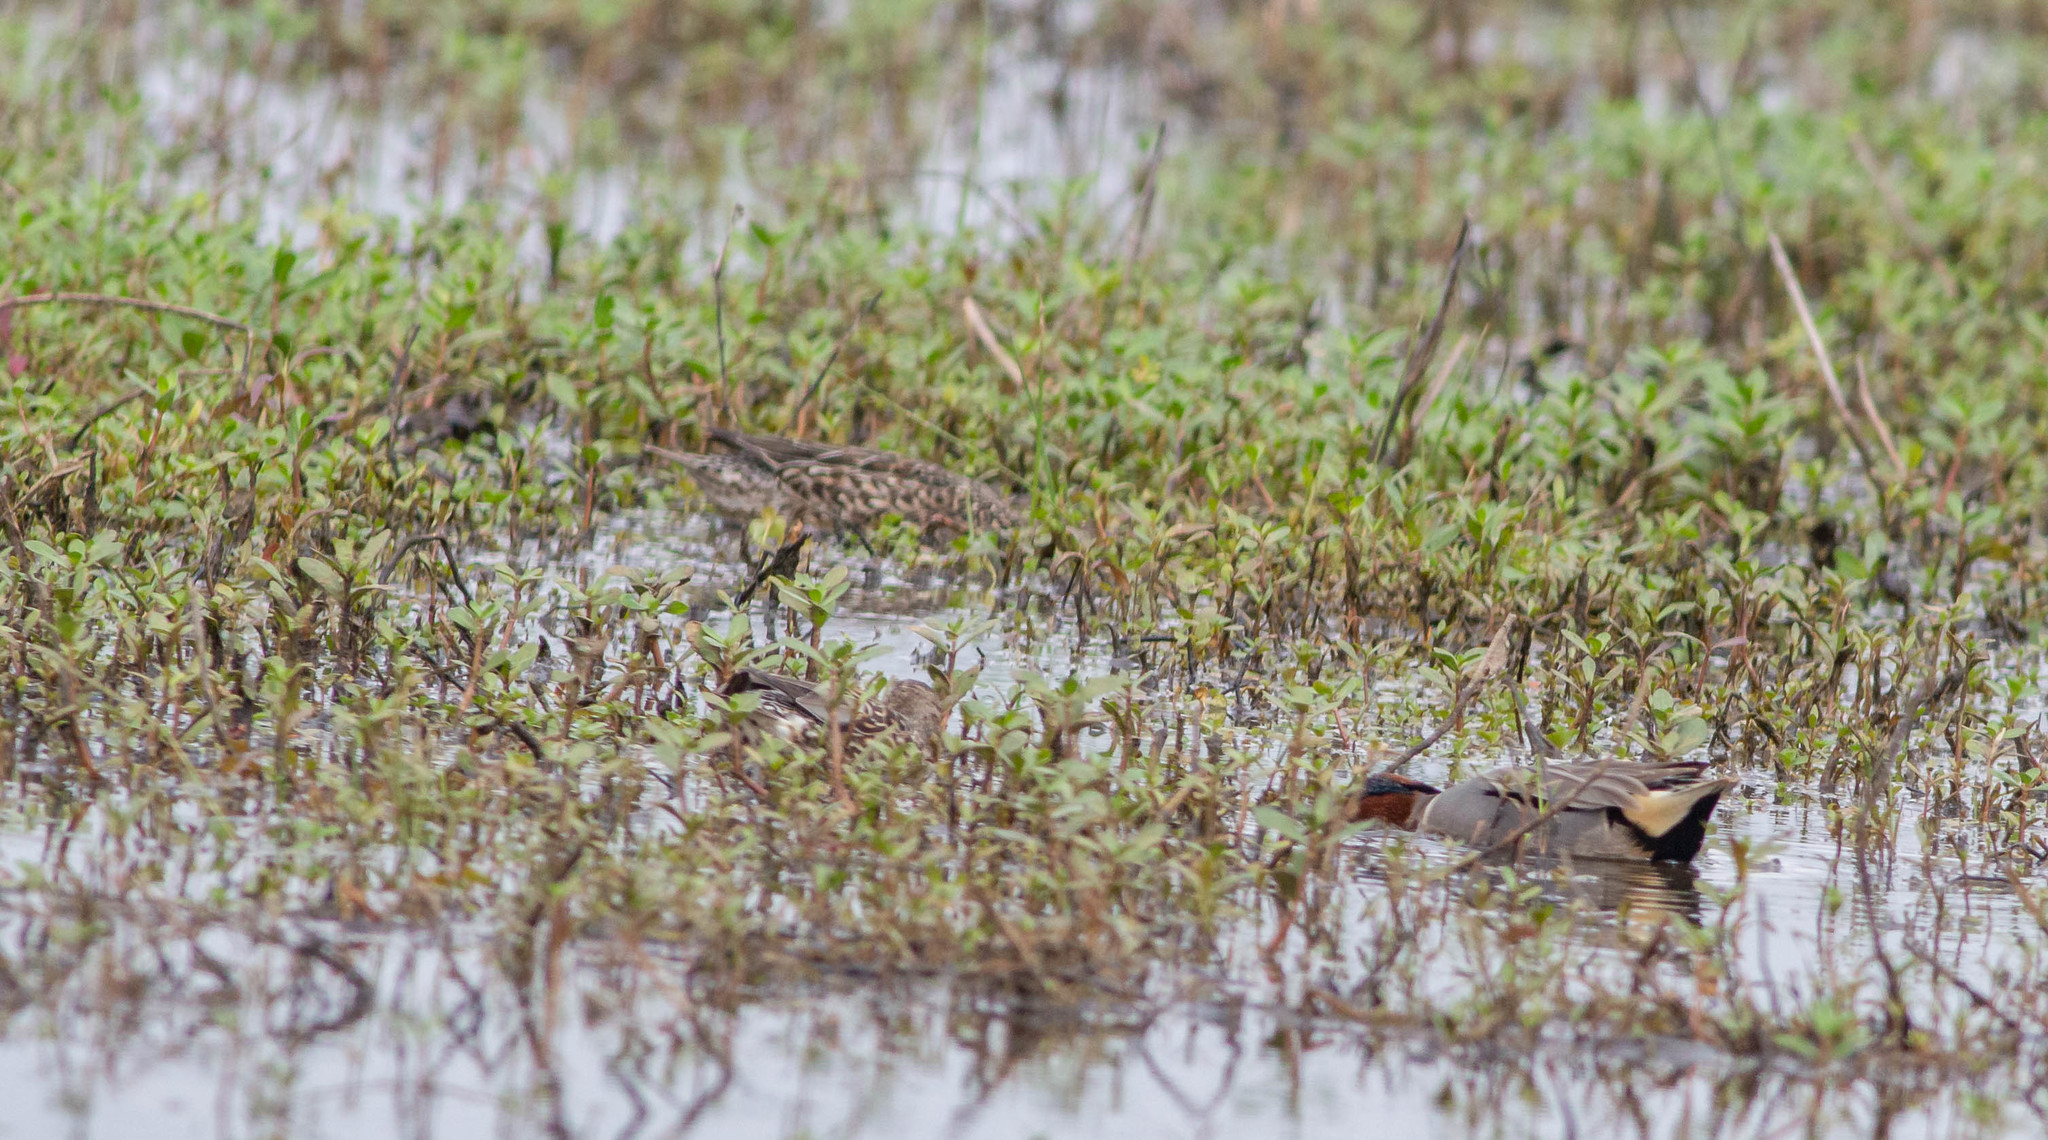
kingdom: Animalia
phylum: Chordata
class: Aves
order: Anseriformes
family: Anatidae
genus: Anas
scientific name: Anas crecca
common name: Eurasian teal
